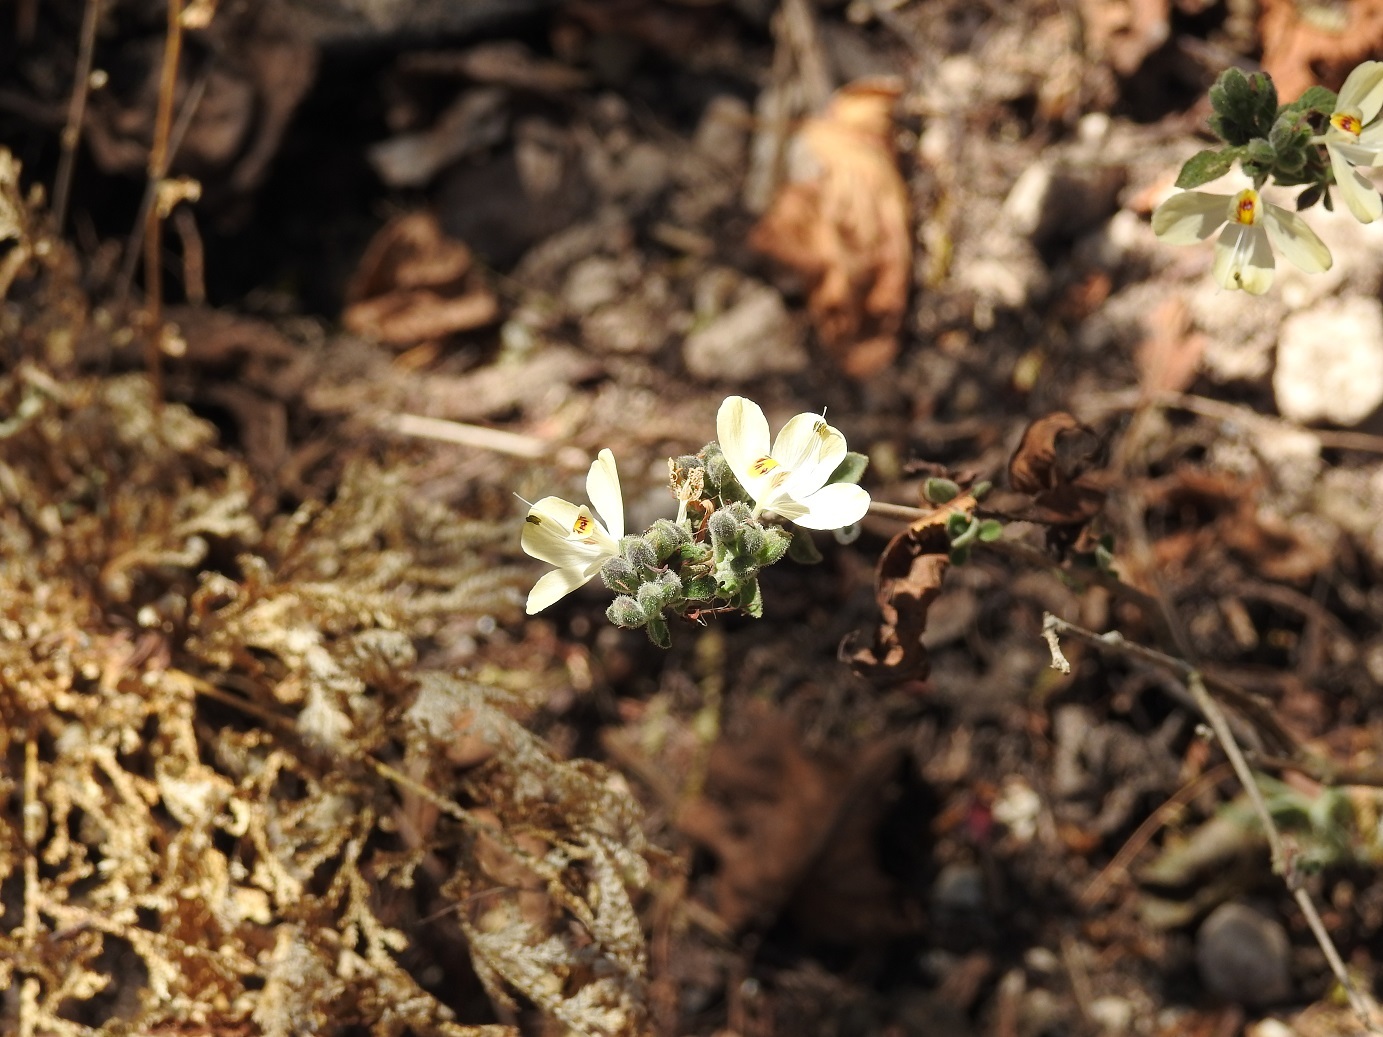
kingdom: Plantae
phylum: Tracheophyta
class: Magnoliopsida
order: Lamiales
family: Acanthaceae
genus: Henrya
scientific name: Henrya insularis
